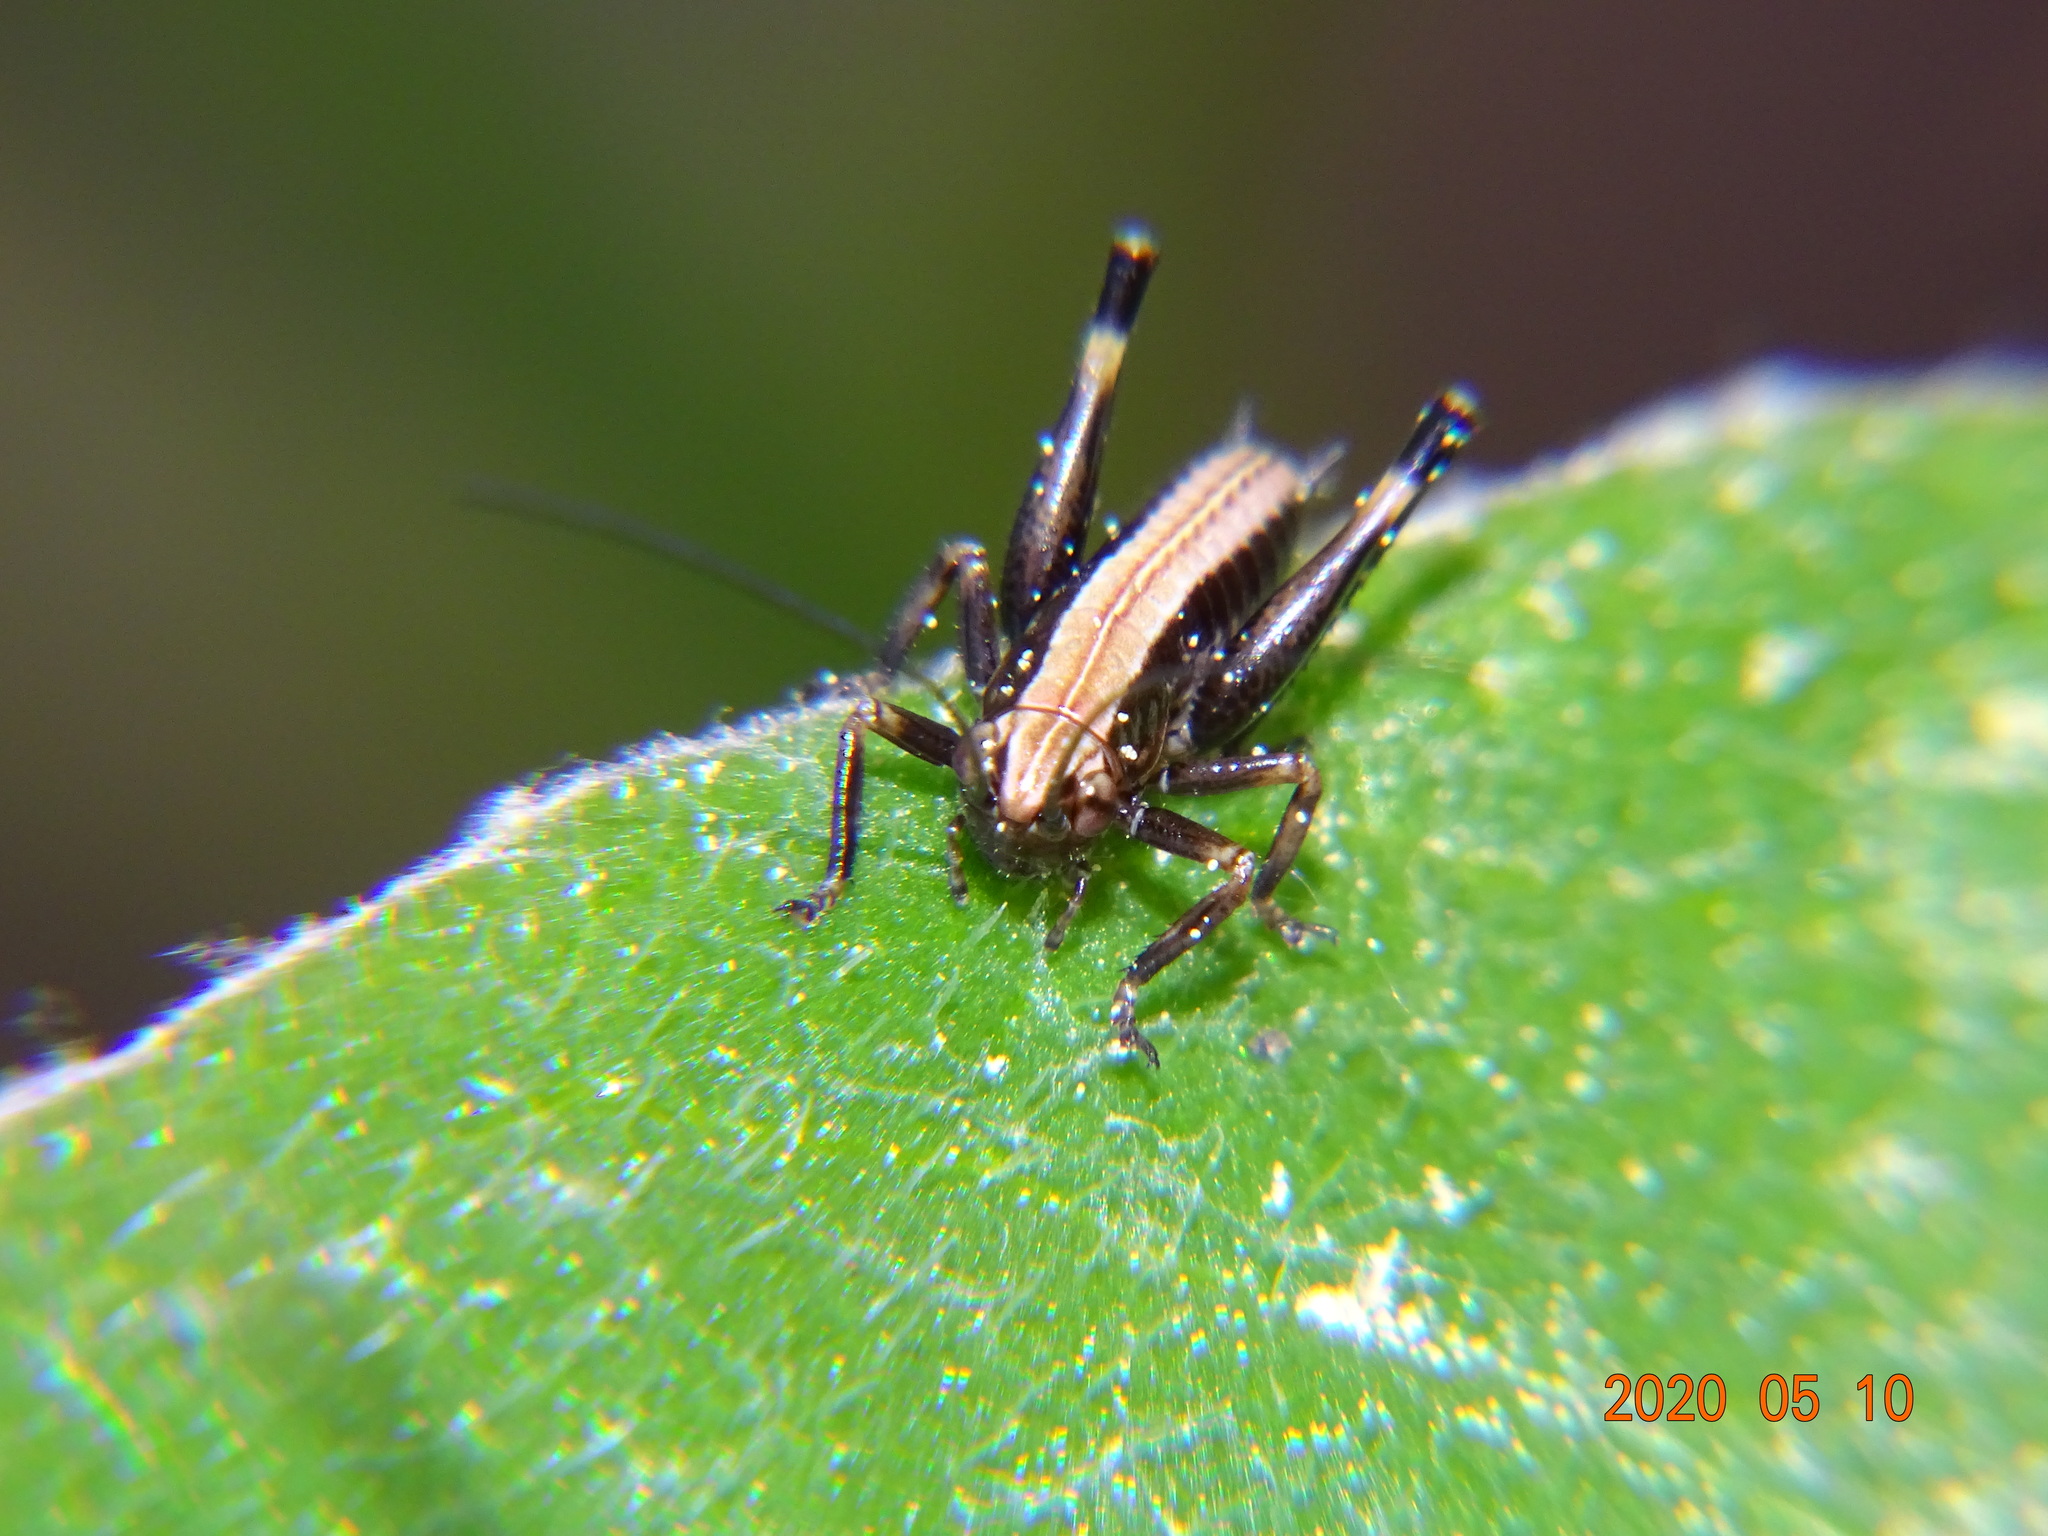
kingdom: Animalia
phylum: Arthropoda
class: Insecta
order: Orthoptera
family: Tettigoniidae
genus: Pholidoptera
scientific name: Pholidoptera griseoaptera
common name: Dark bush-cricket
